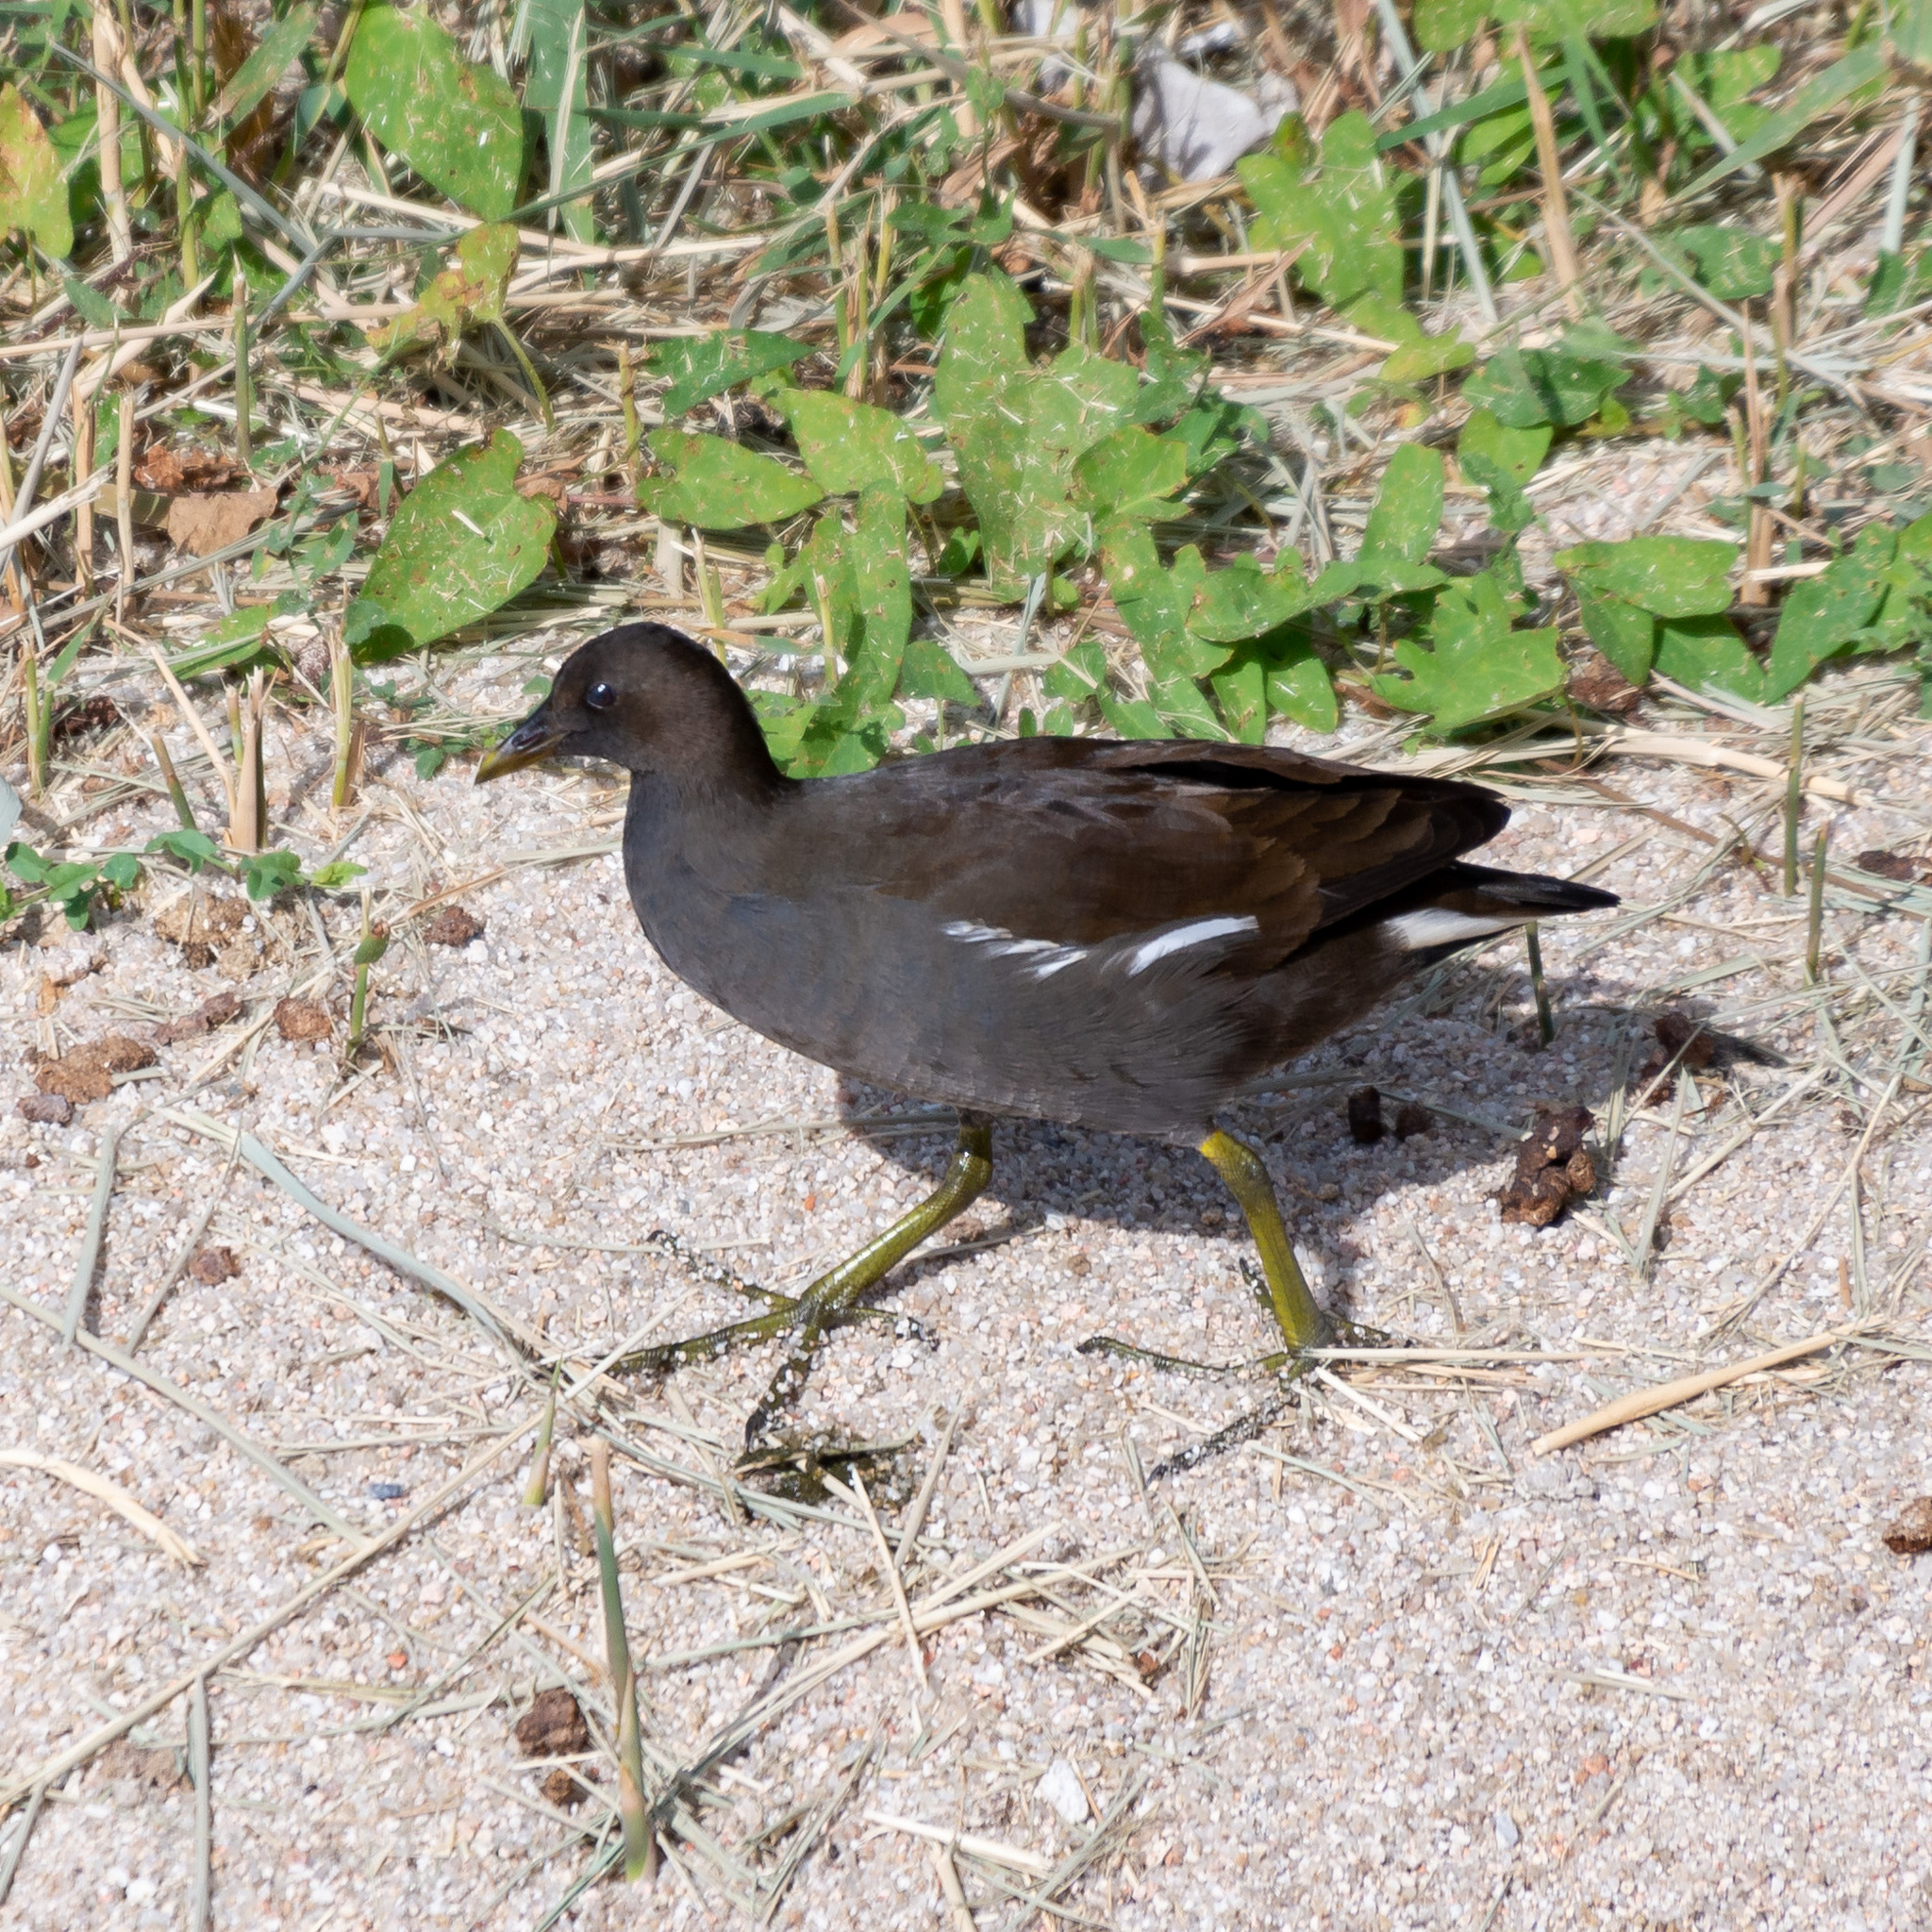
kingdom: Animalia
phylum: Chordata
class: Aves
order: Gruiformes
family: Rallidae
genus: Gallinula
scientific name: Gallinula chloropus
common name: Common moorhen
